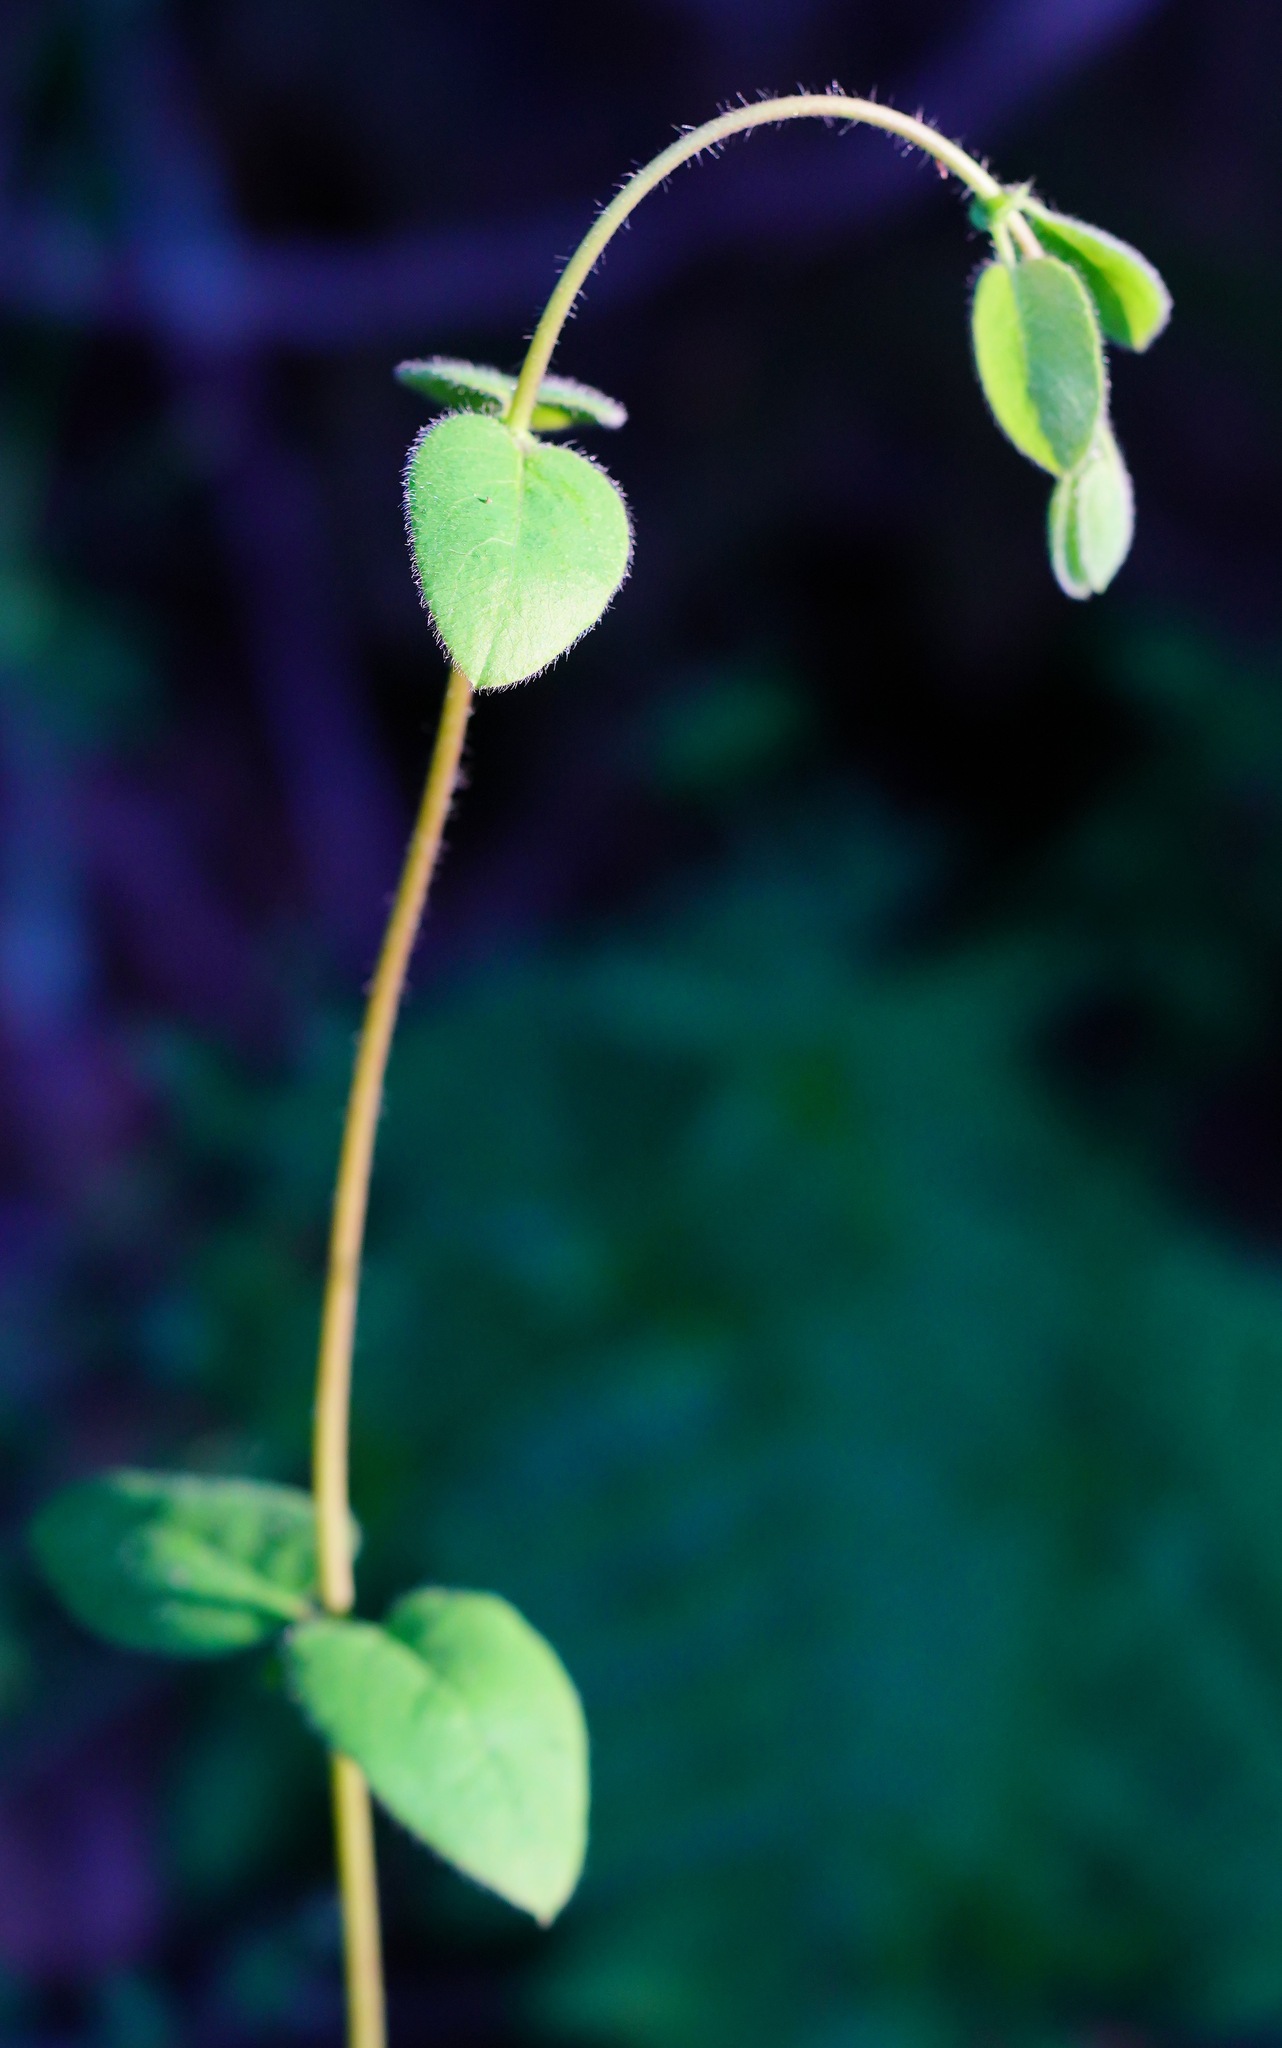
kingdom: Plantae
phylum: Tracheophyta
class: Magnoliopsida
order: Dipsacales
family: Caprifoliaceae
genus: Lonicera
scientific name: Lonicera hispidula
